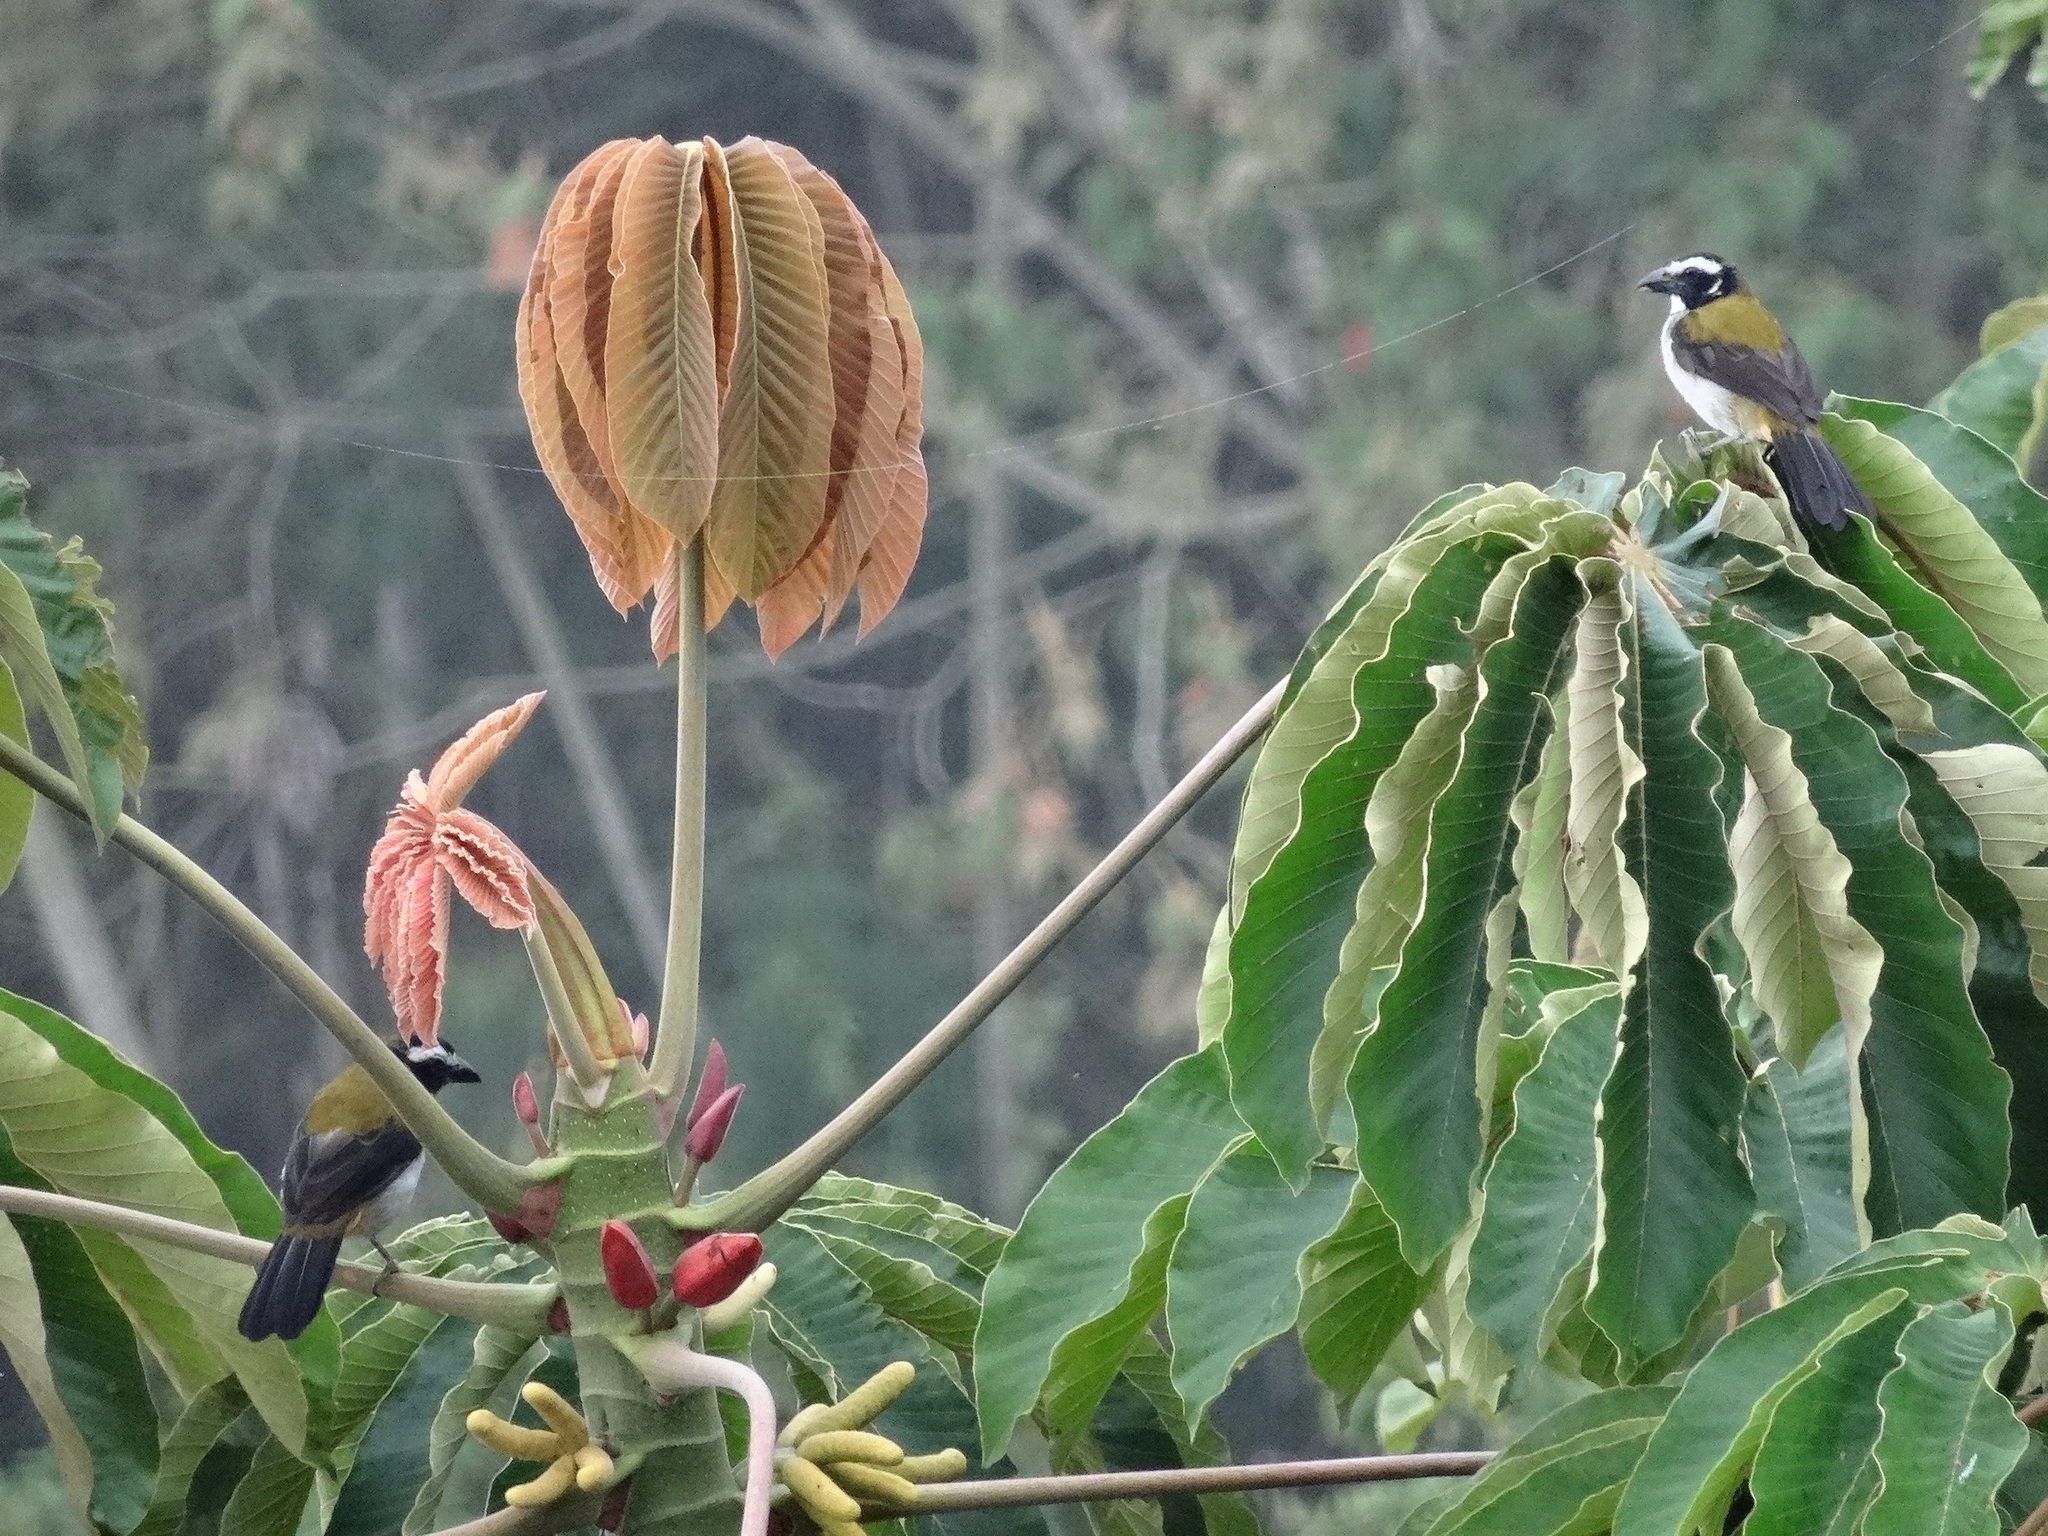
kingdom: Animalia
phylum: Chordata
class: Aves
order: Passeriformes
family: Thraupidae
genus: Saltator
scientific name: Saltator atripennis
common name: Black-winged saltator
